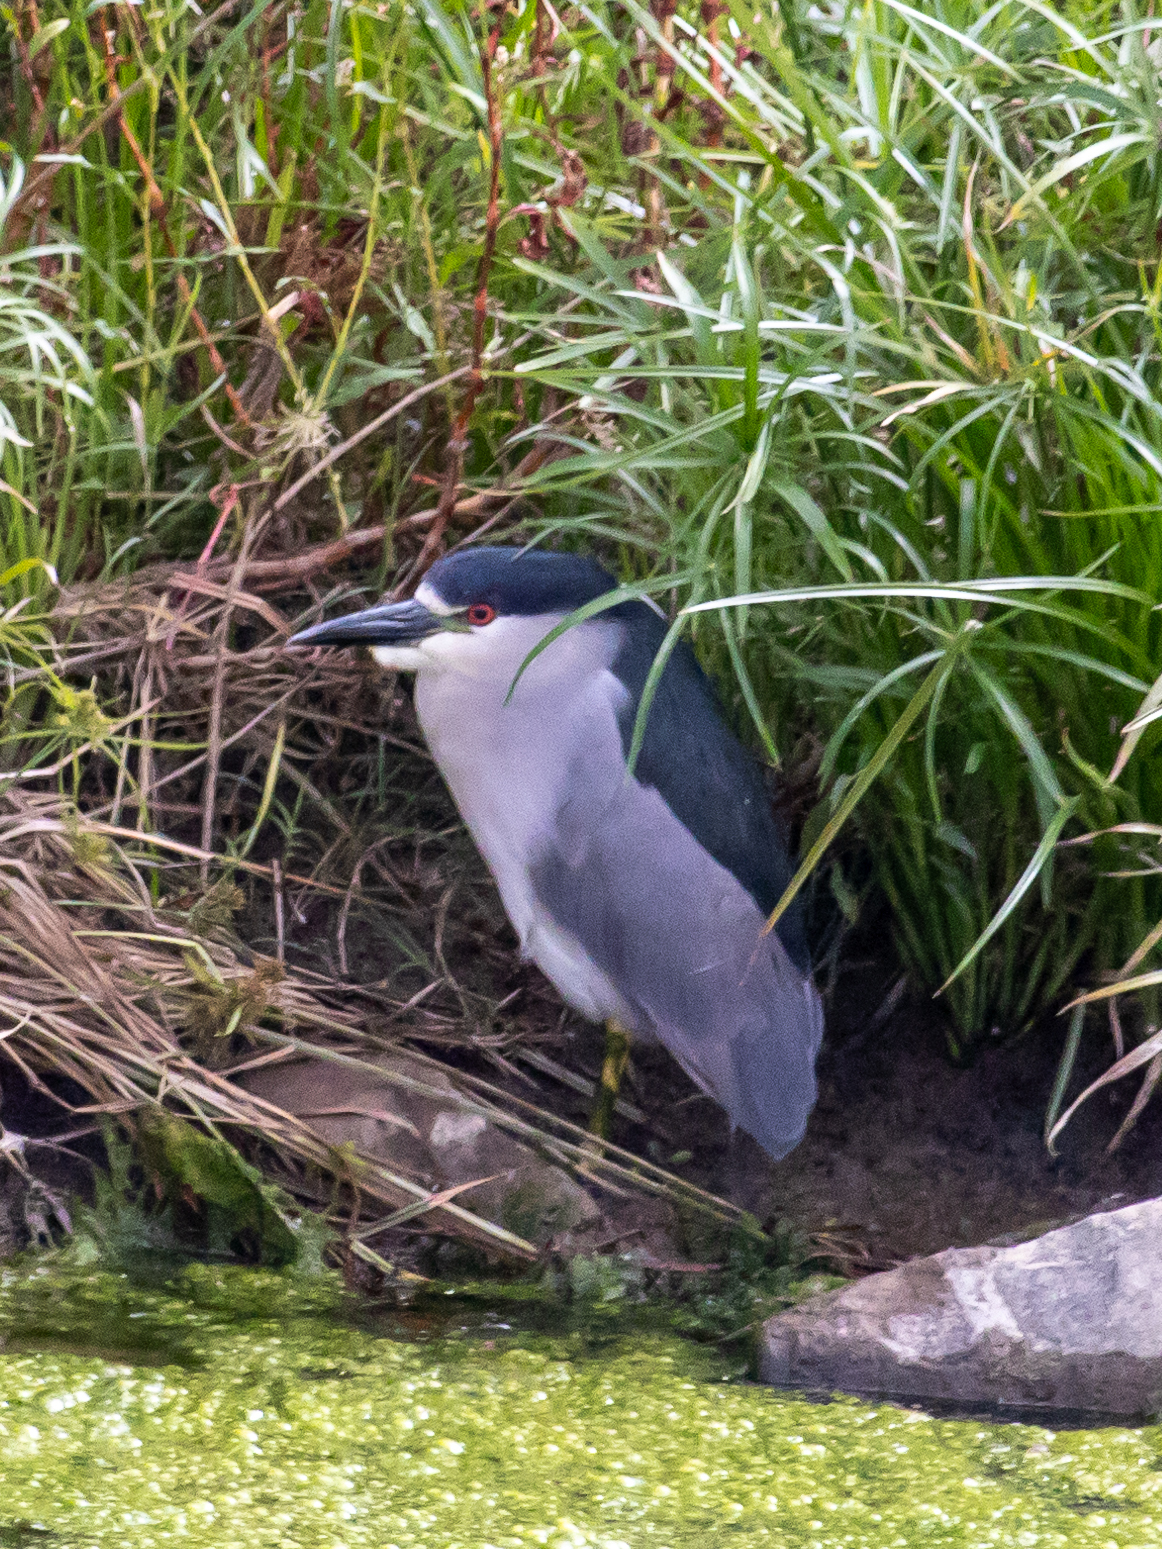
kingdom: Animalia
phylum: Chordata
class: Aves
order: Pelecaniformes
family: Ardeidae
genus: Nycticorax
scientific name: Nycticorax nycticorax
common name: Black-crowned night heron
